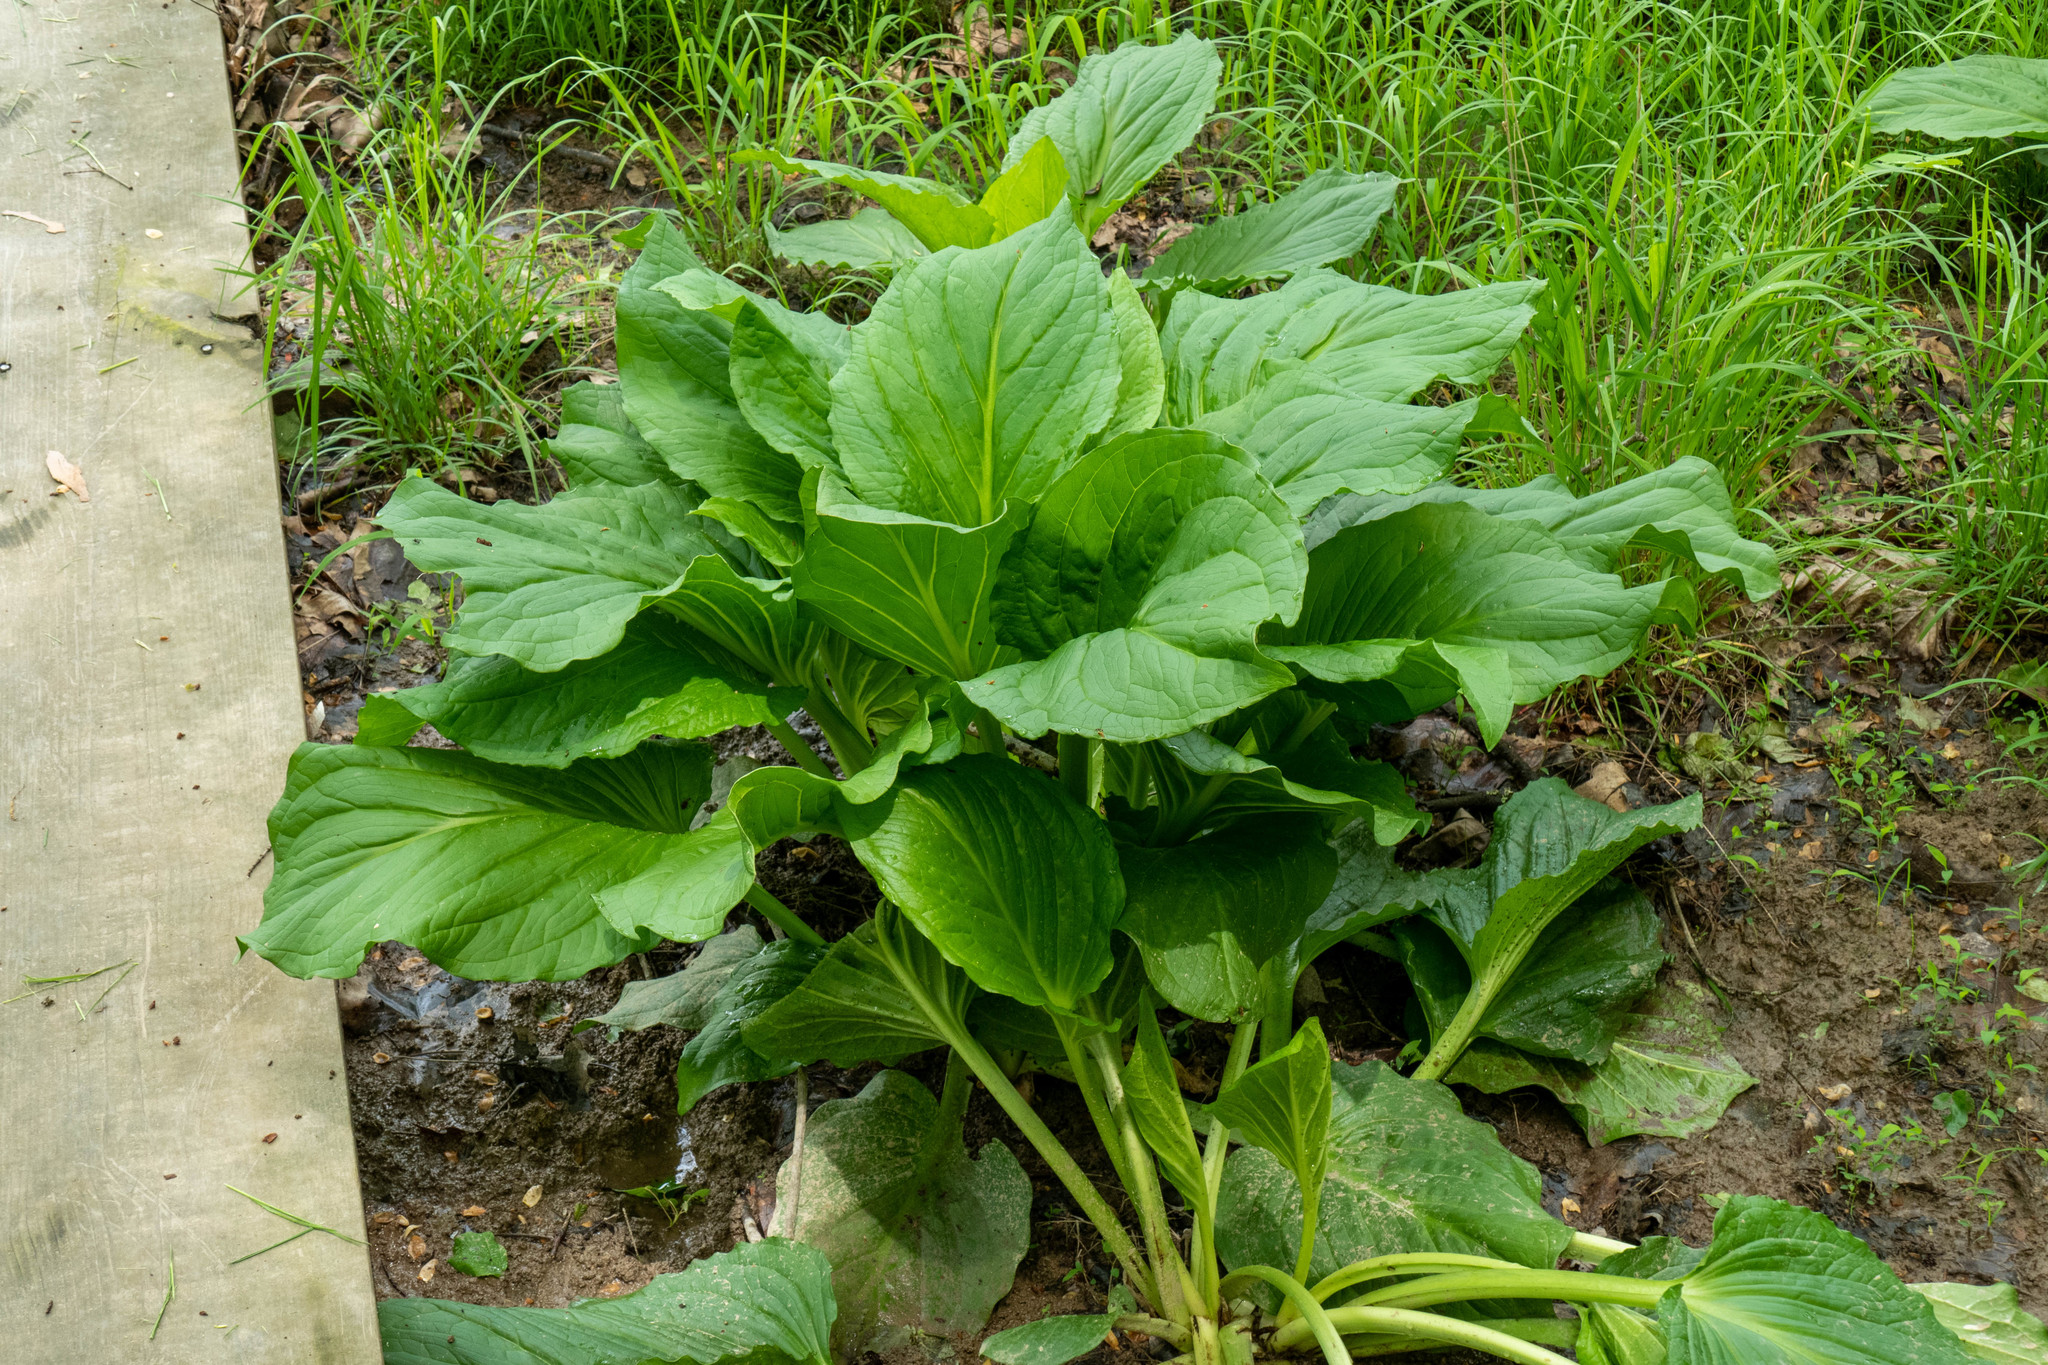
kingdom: Plantae
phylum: Tracheophyta
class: Liliopsida
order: Alismatales
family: Araceae
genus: Symplocarpus
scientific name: Symplocarpus foetidus
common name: Eastern skunk cabbage
